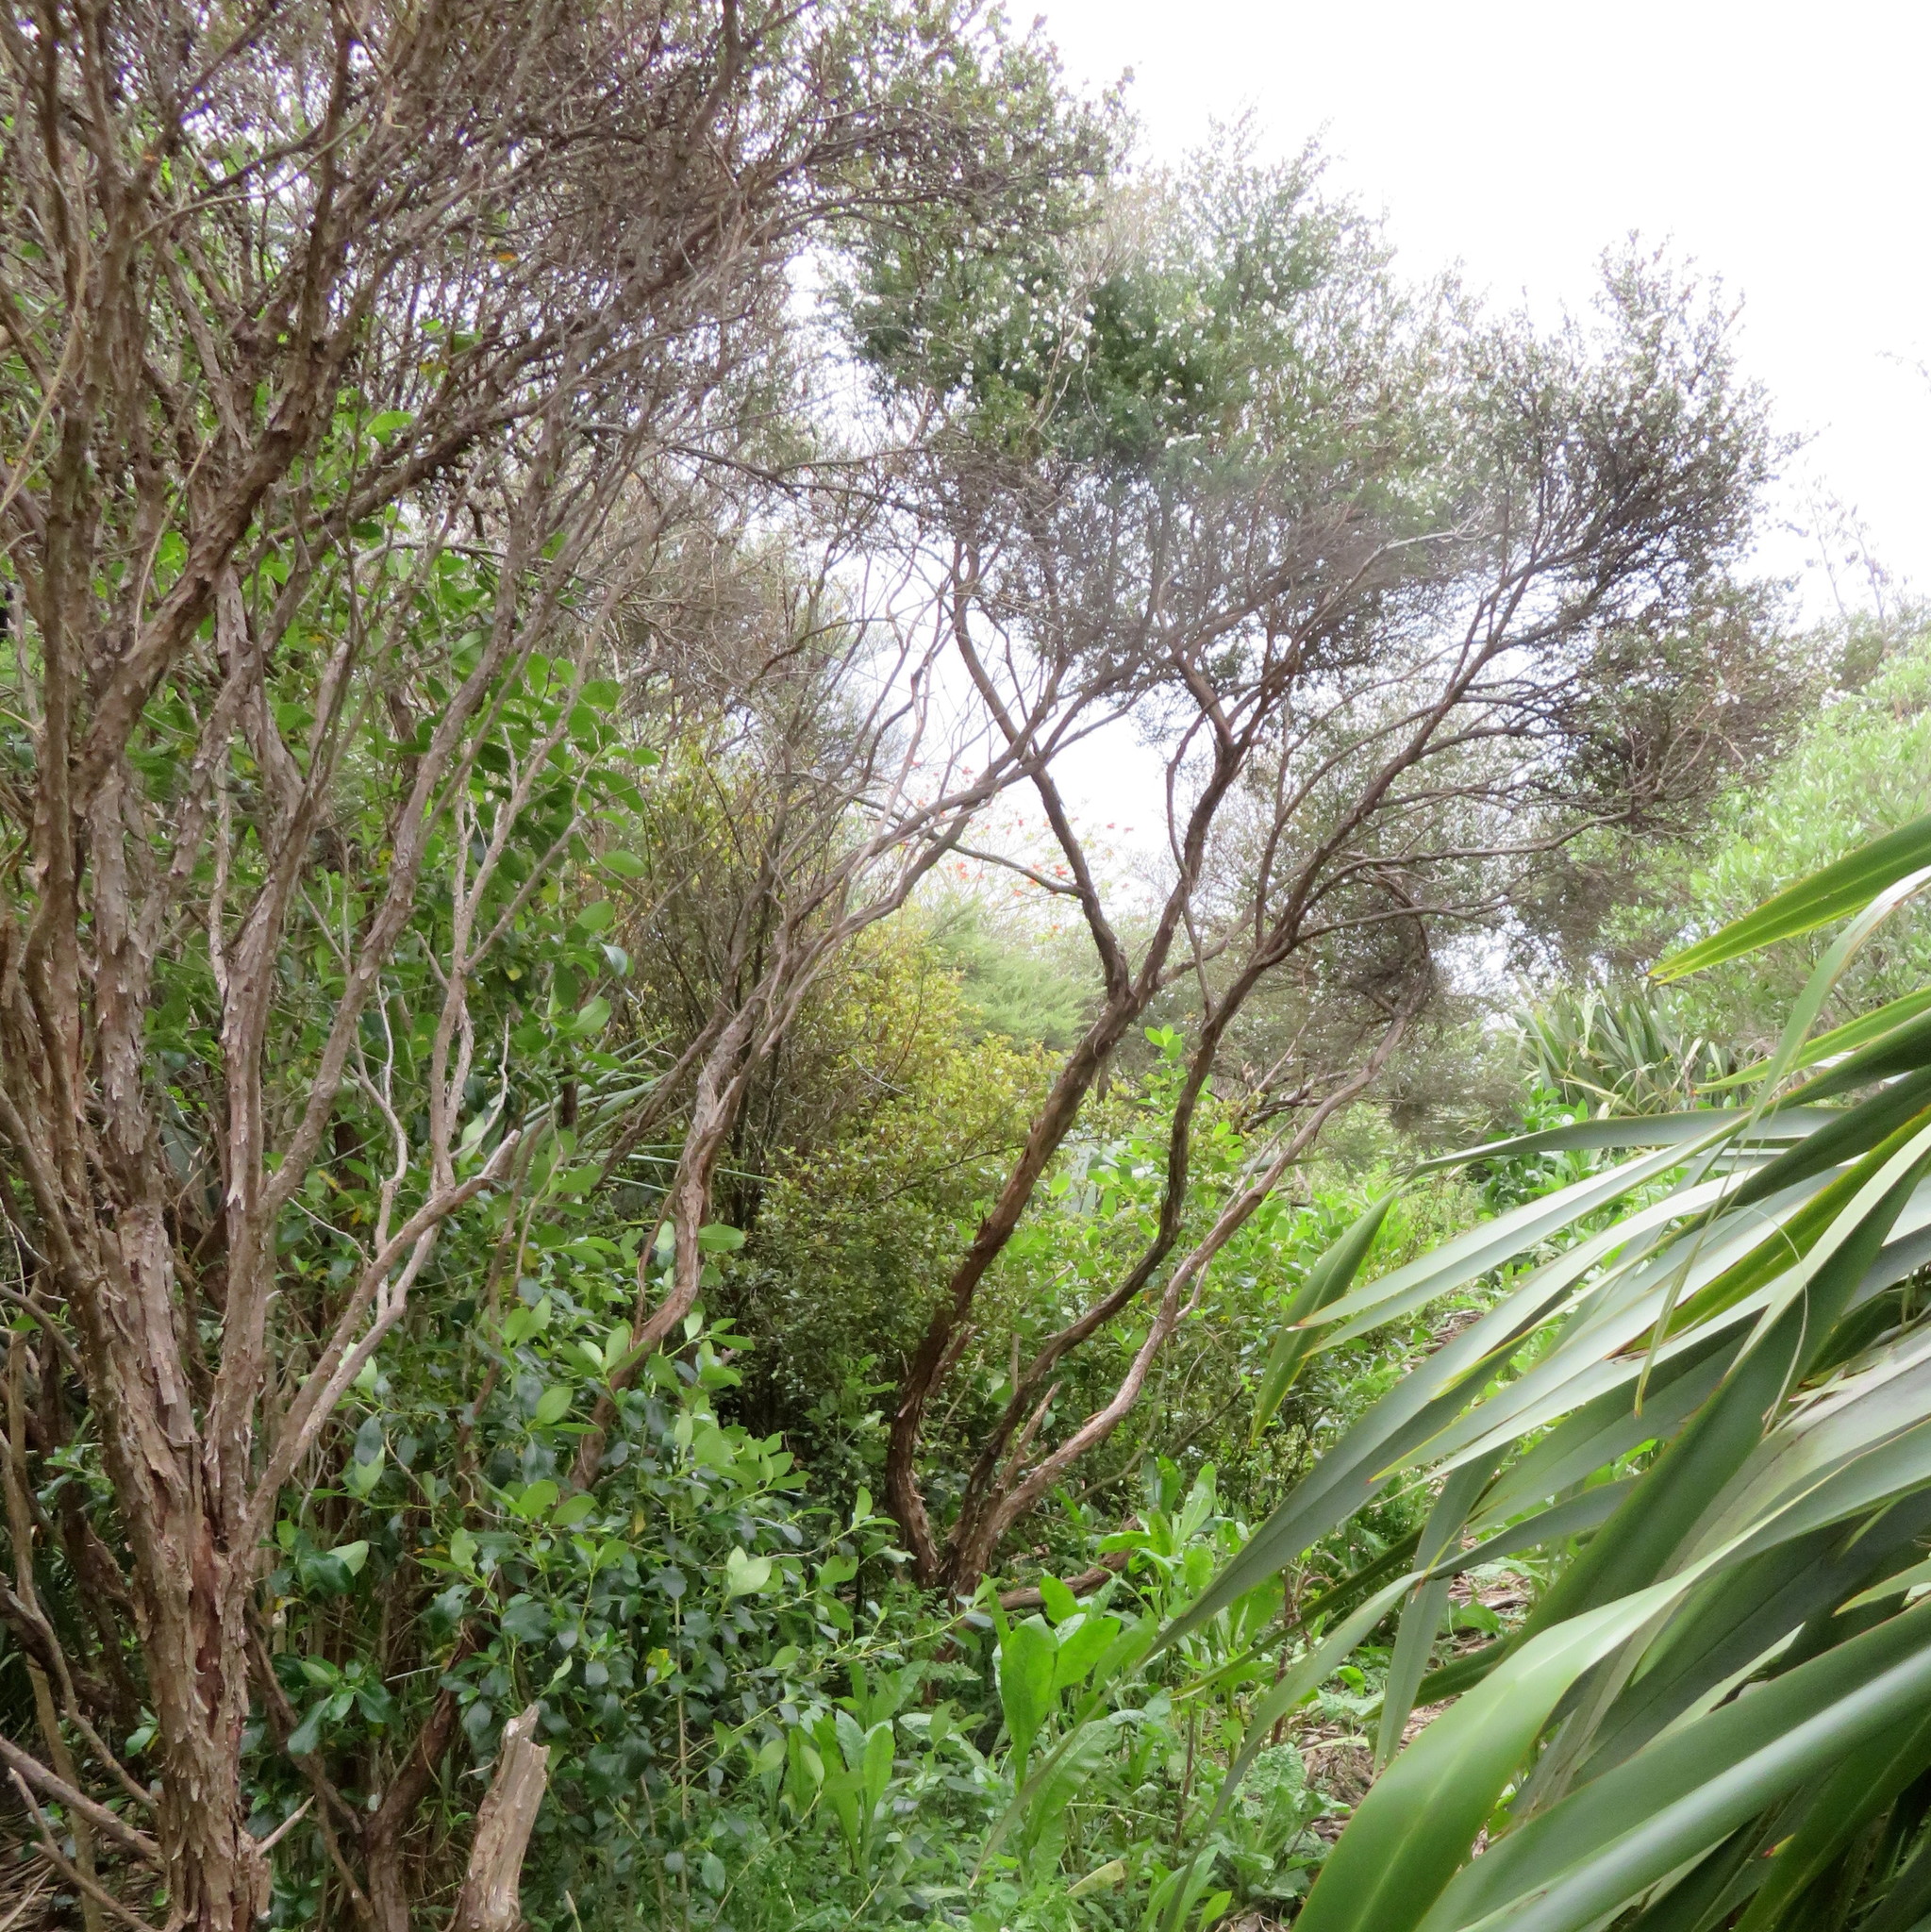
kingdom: Plantae
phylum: Tracheophyta
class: Magnoliopsida
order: Myrtales
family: Myrtaceae
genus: Leptospermum
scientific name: Leptospermum scoparium
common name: Broom tea-tree
